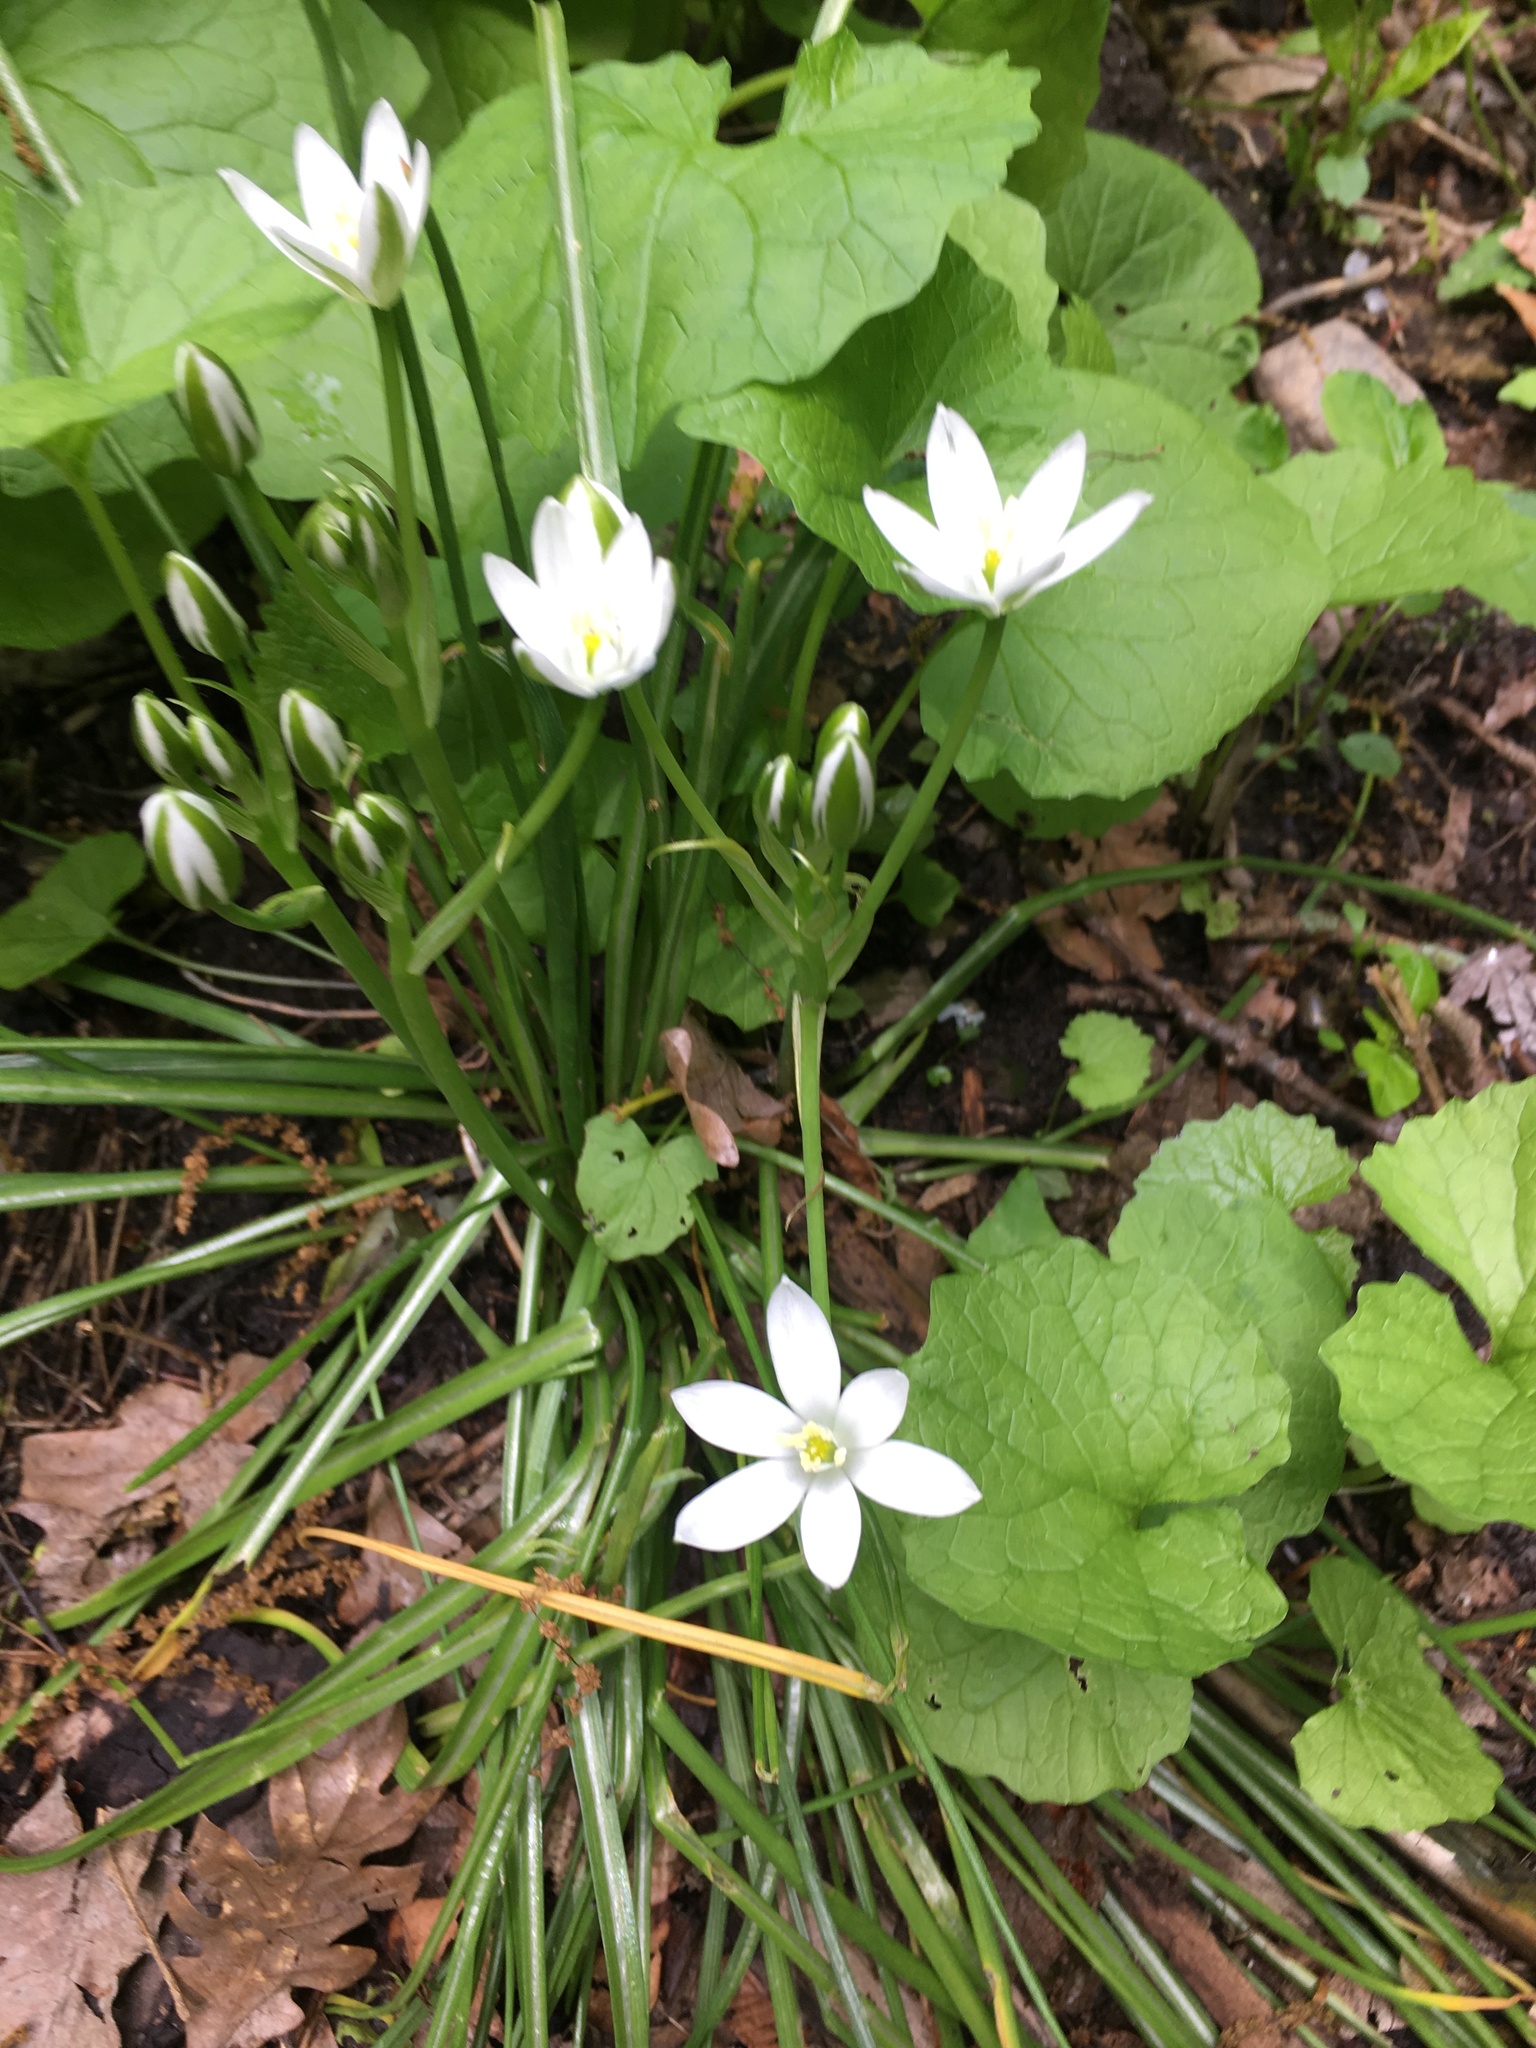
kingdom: Plantae
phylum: Tracheophyta
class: Liliopsida
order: Asparagales
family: Asparagaceae
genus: Ornithogalum
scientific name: Ornithogalum umbellatum
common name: Garden star-of-bethlehem
